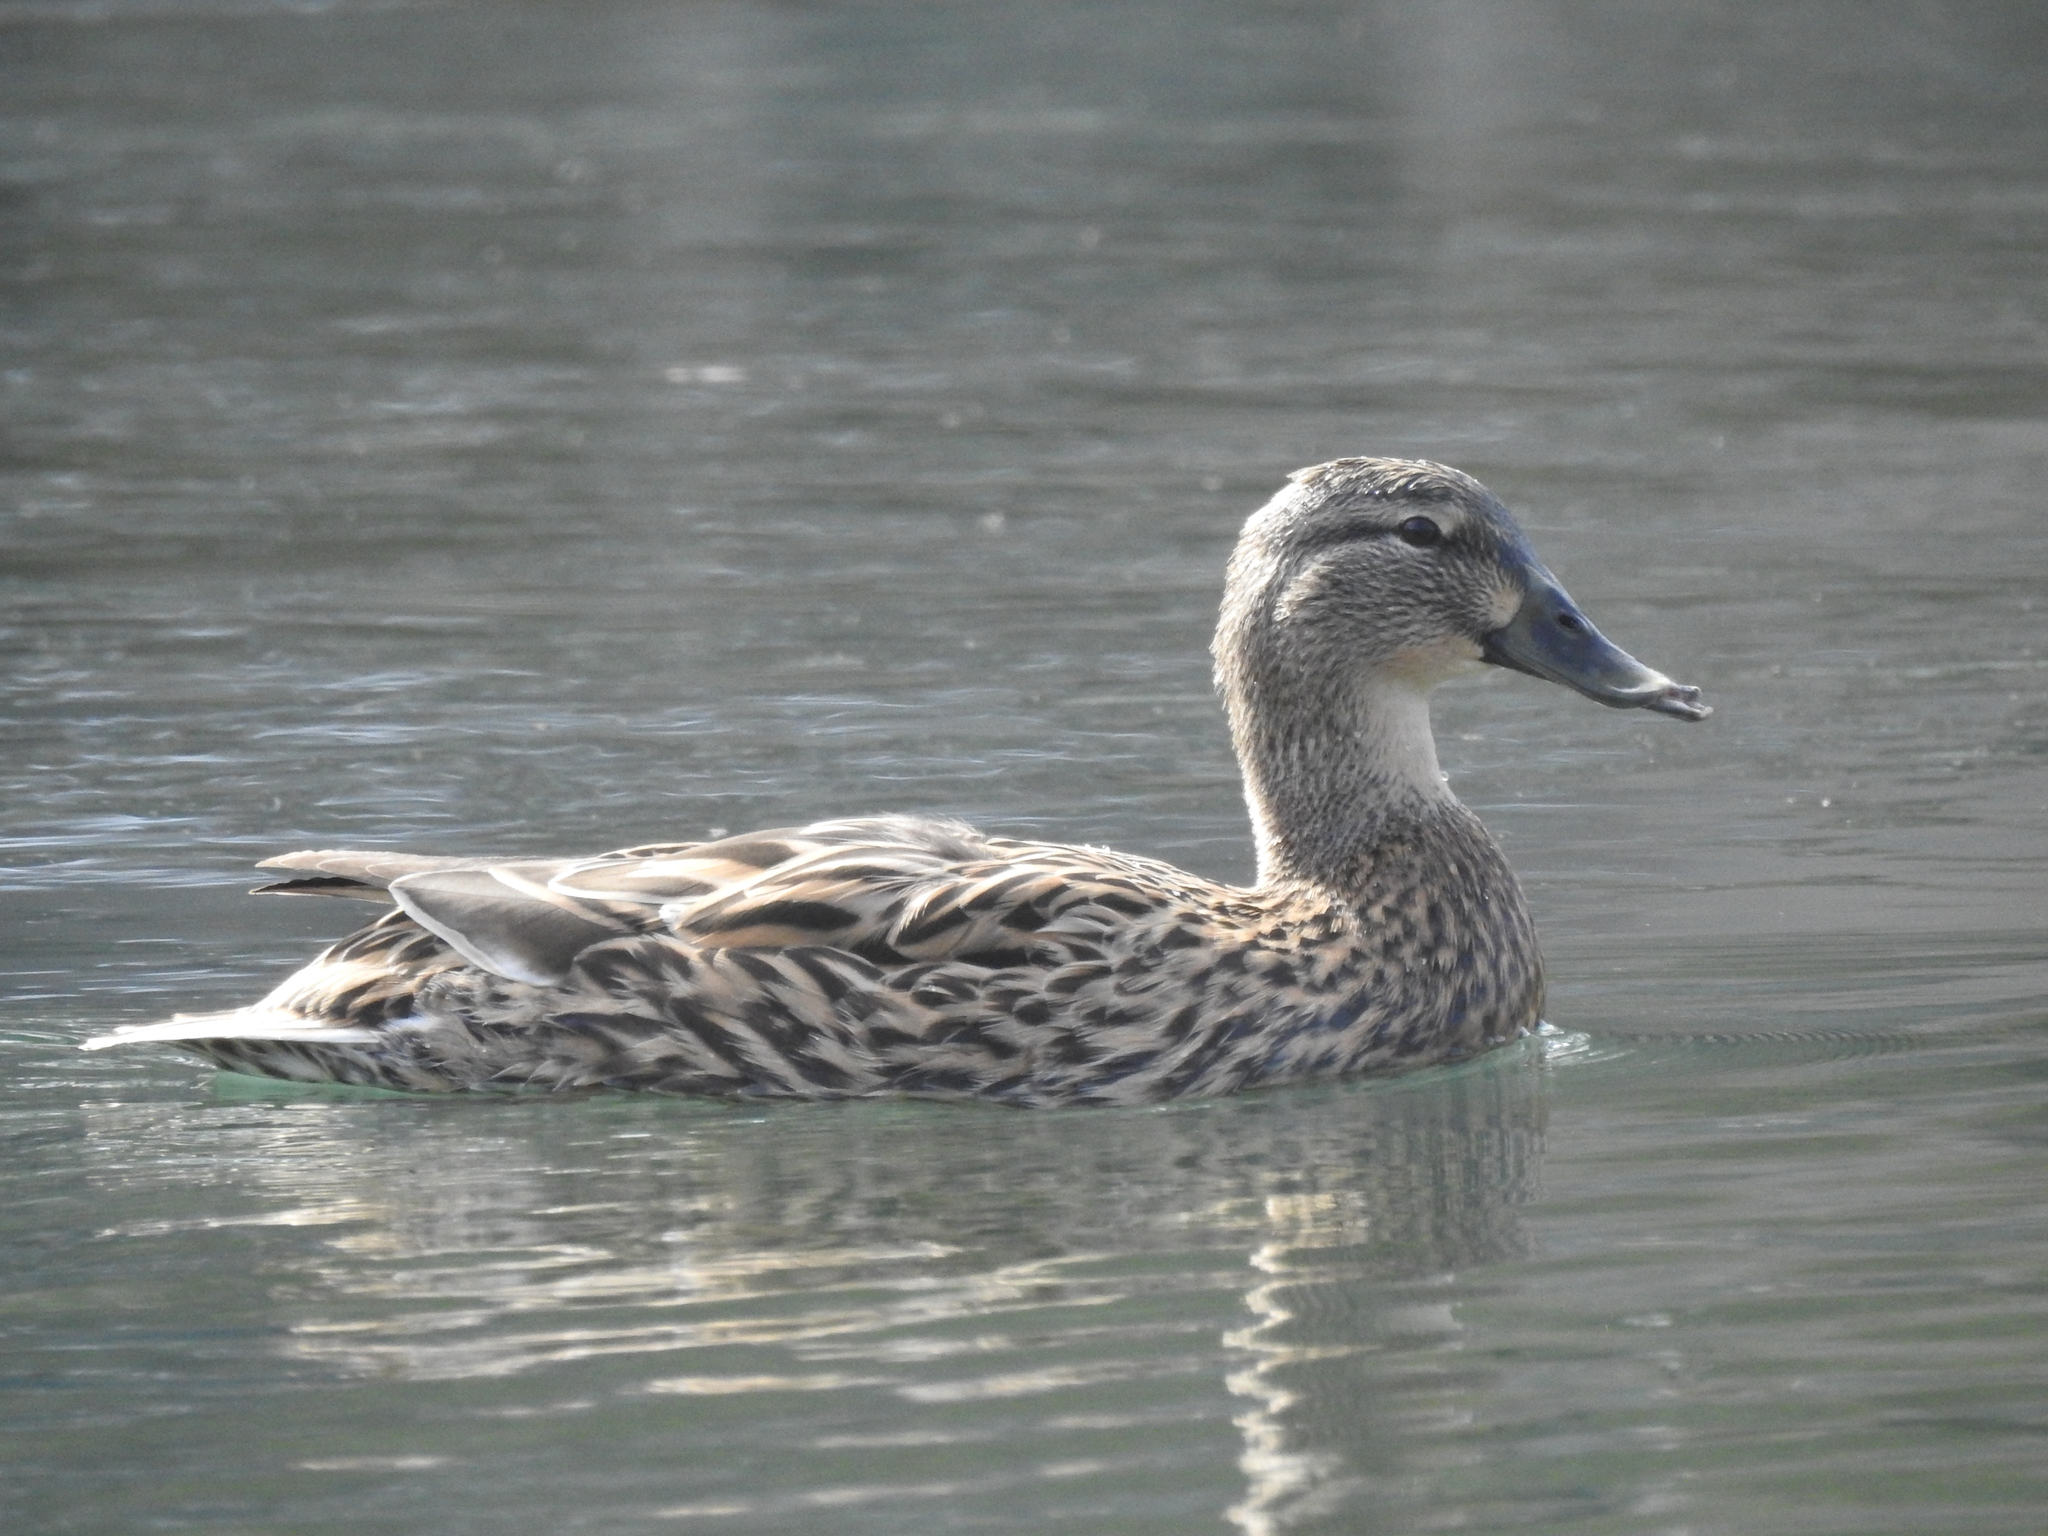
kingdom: Animalia
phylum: Chordata
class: Aves
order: Anseriformes
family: Anatidae
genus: Spatula
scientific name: Spatula discors
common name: Blue-winged teal
